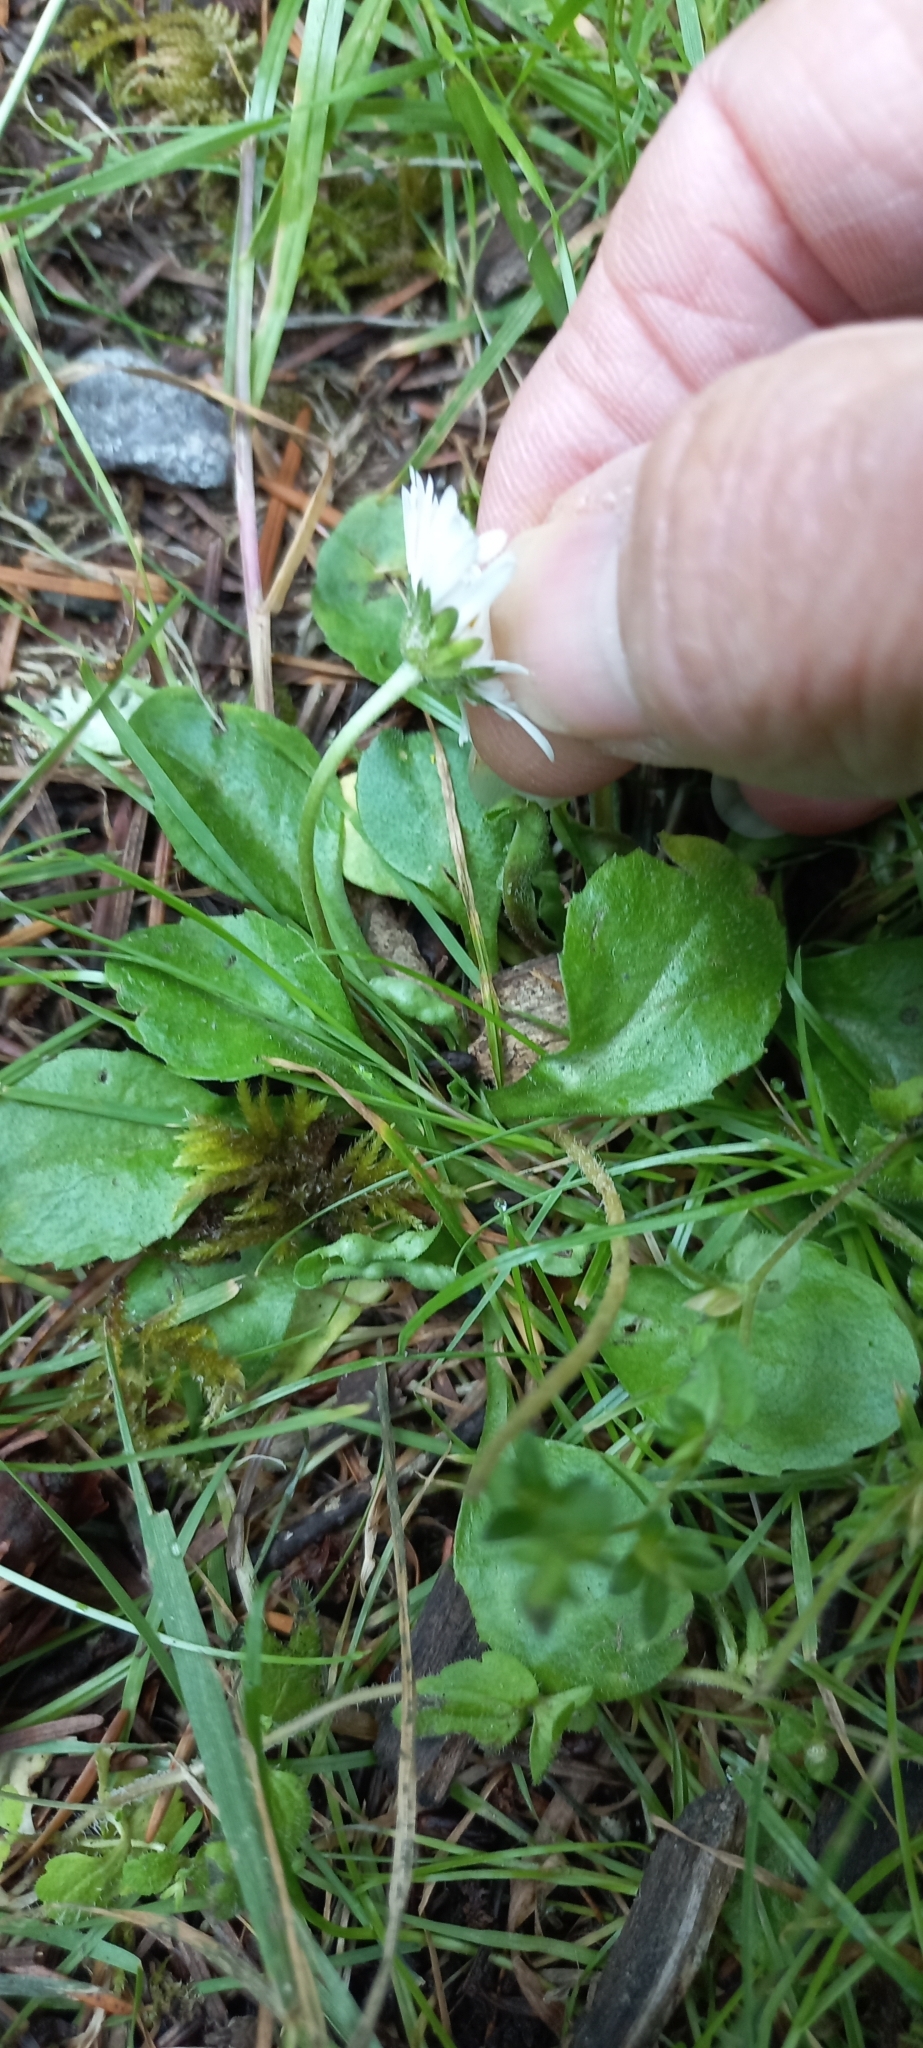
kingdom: Plantae
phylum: Tracheophyta
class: Magnoliopsida
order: Asterales
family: Asteraceae
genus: Bellis
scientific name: Bellis perennis
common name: Lawndaisy
